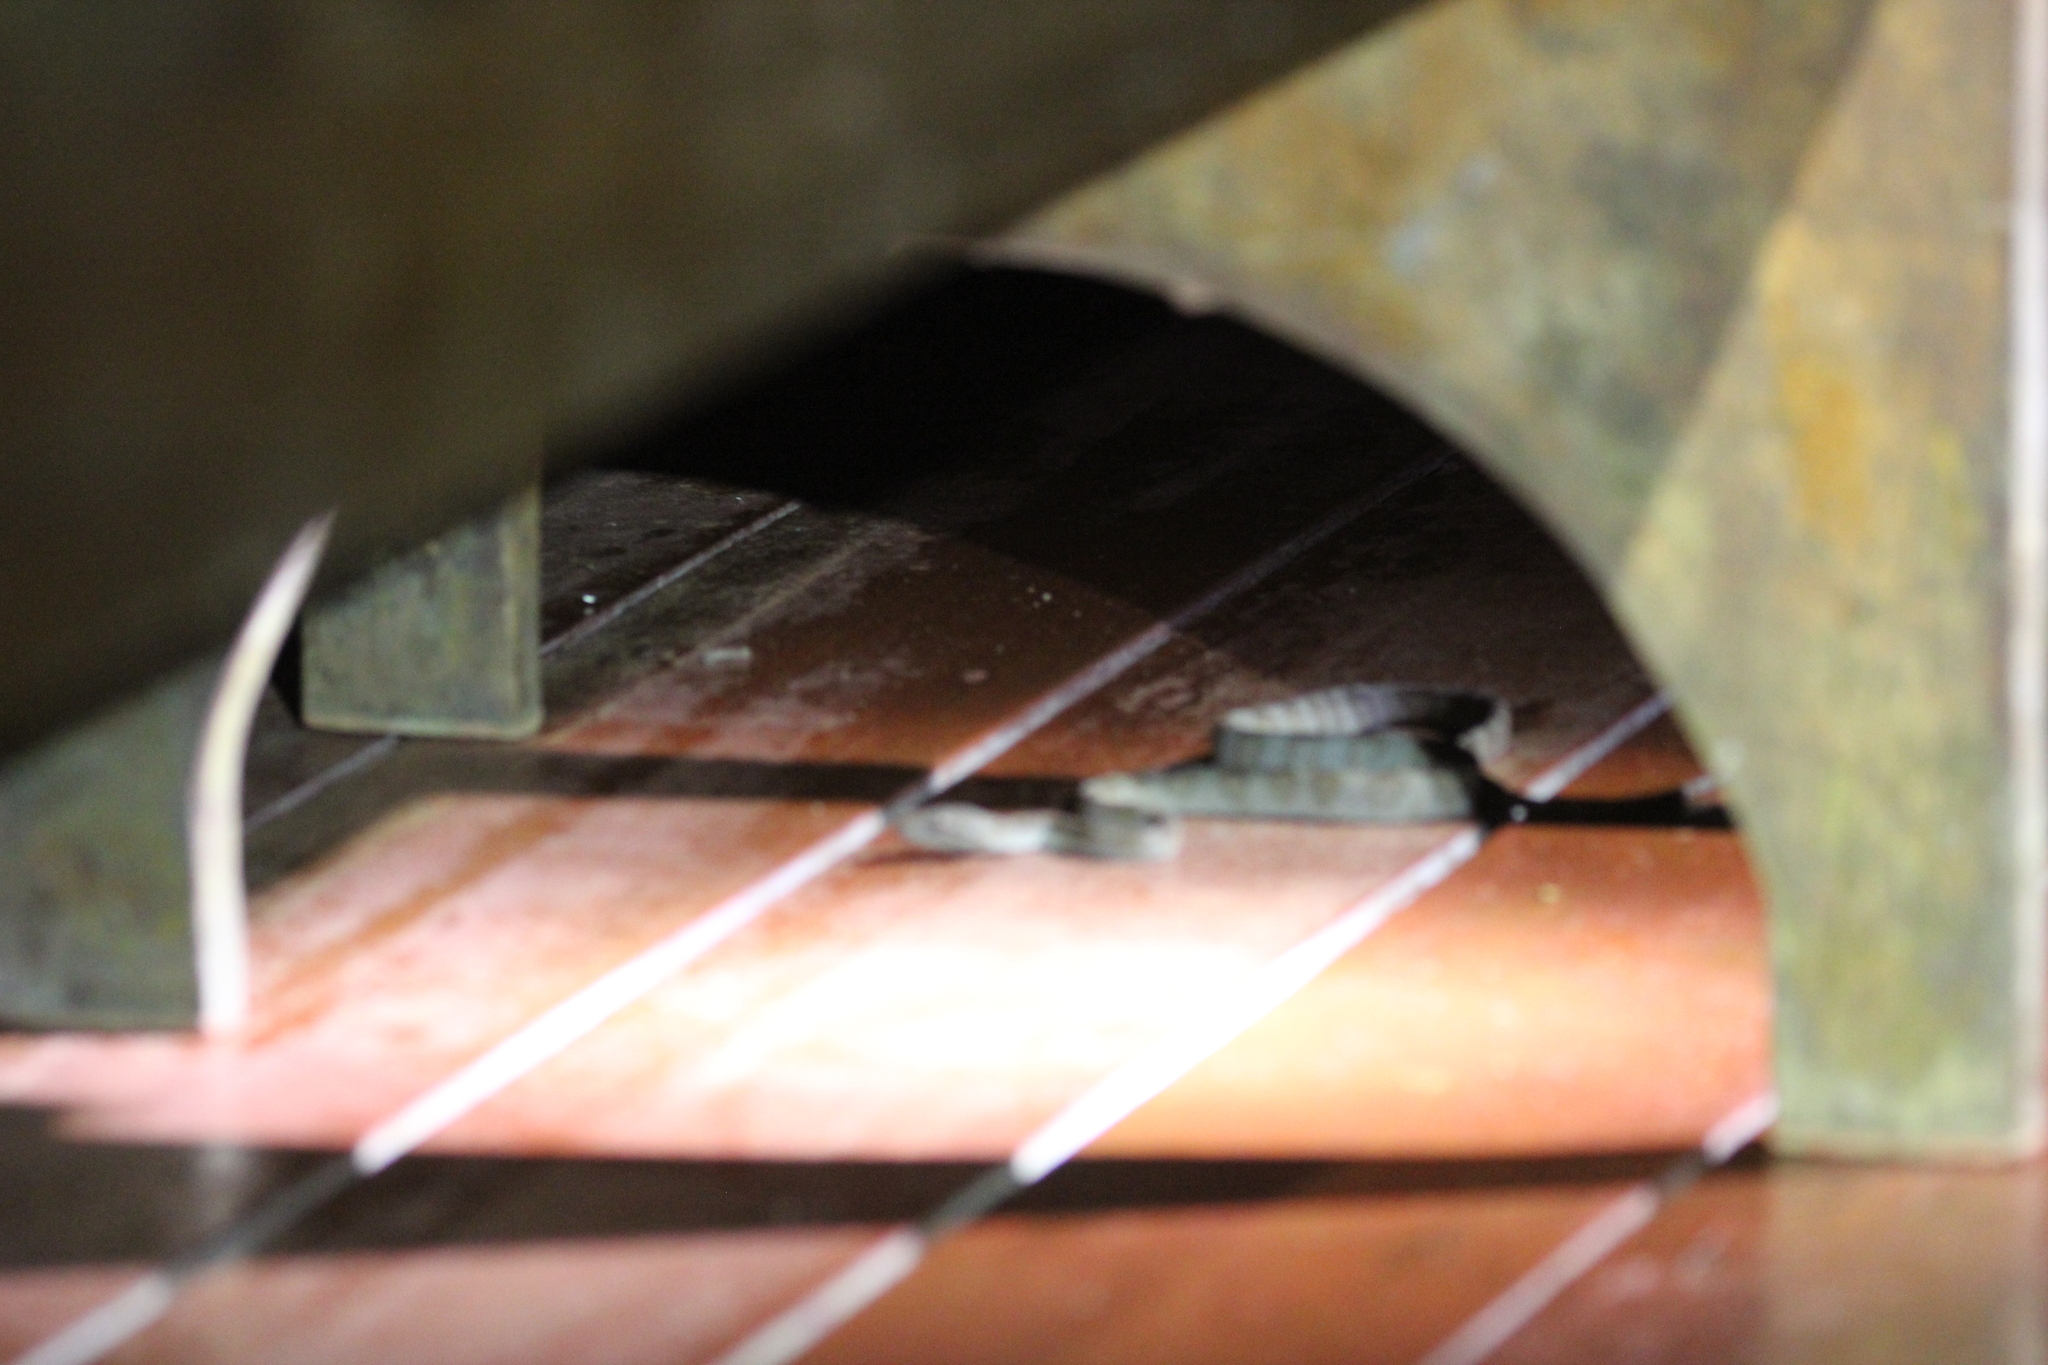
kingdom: Animalia
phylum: Chordata
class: Squamata
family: Boidae
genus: Corallus
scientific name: Corallus annulatus
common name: Ringed tree boa
